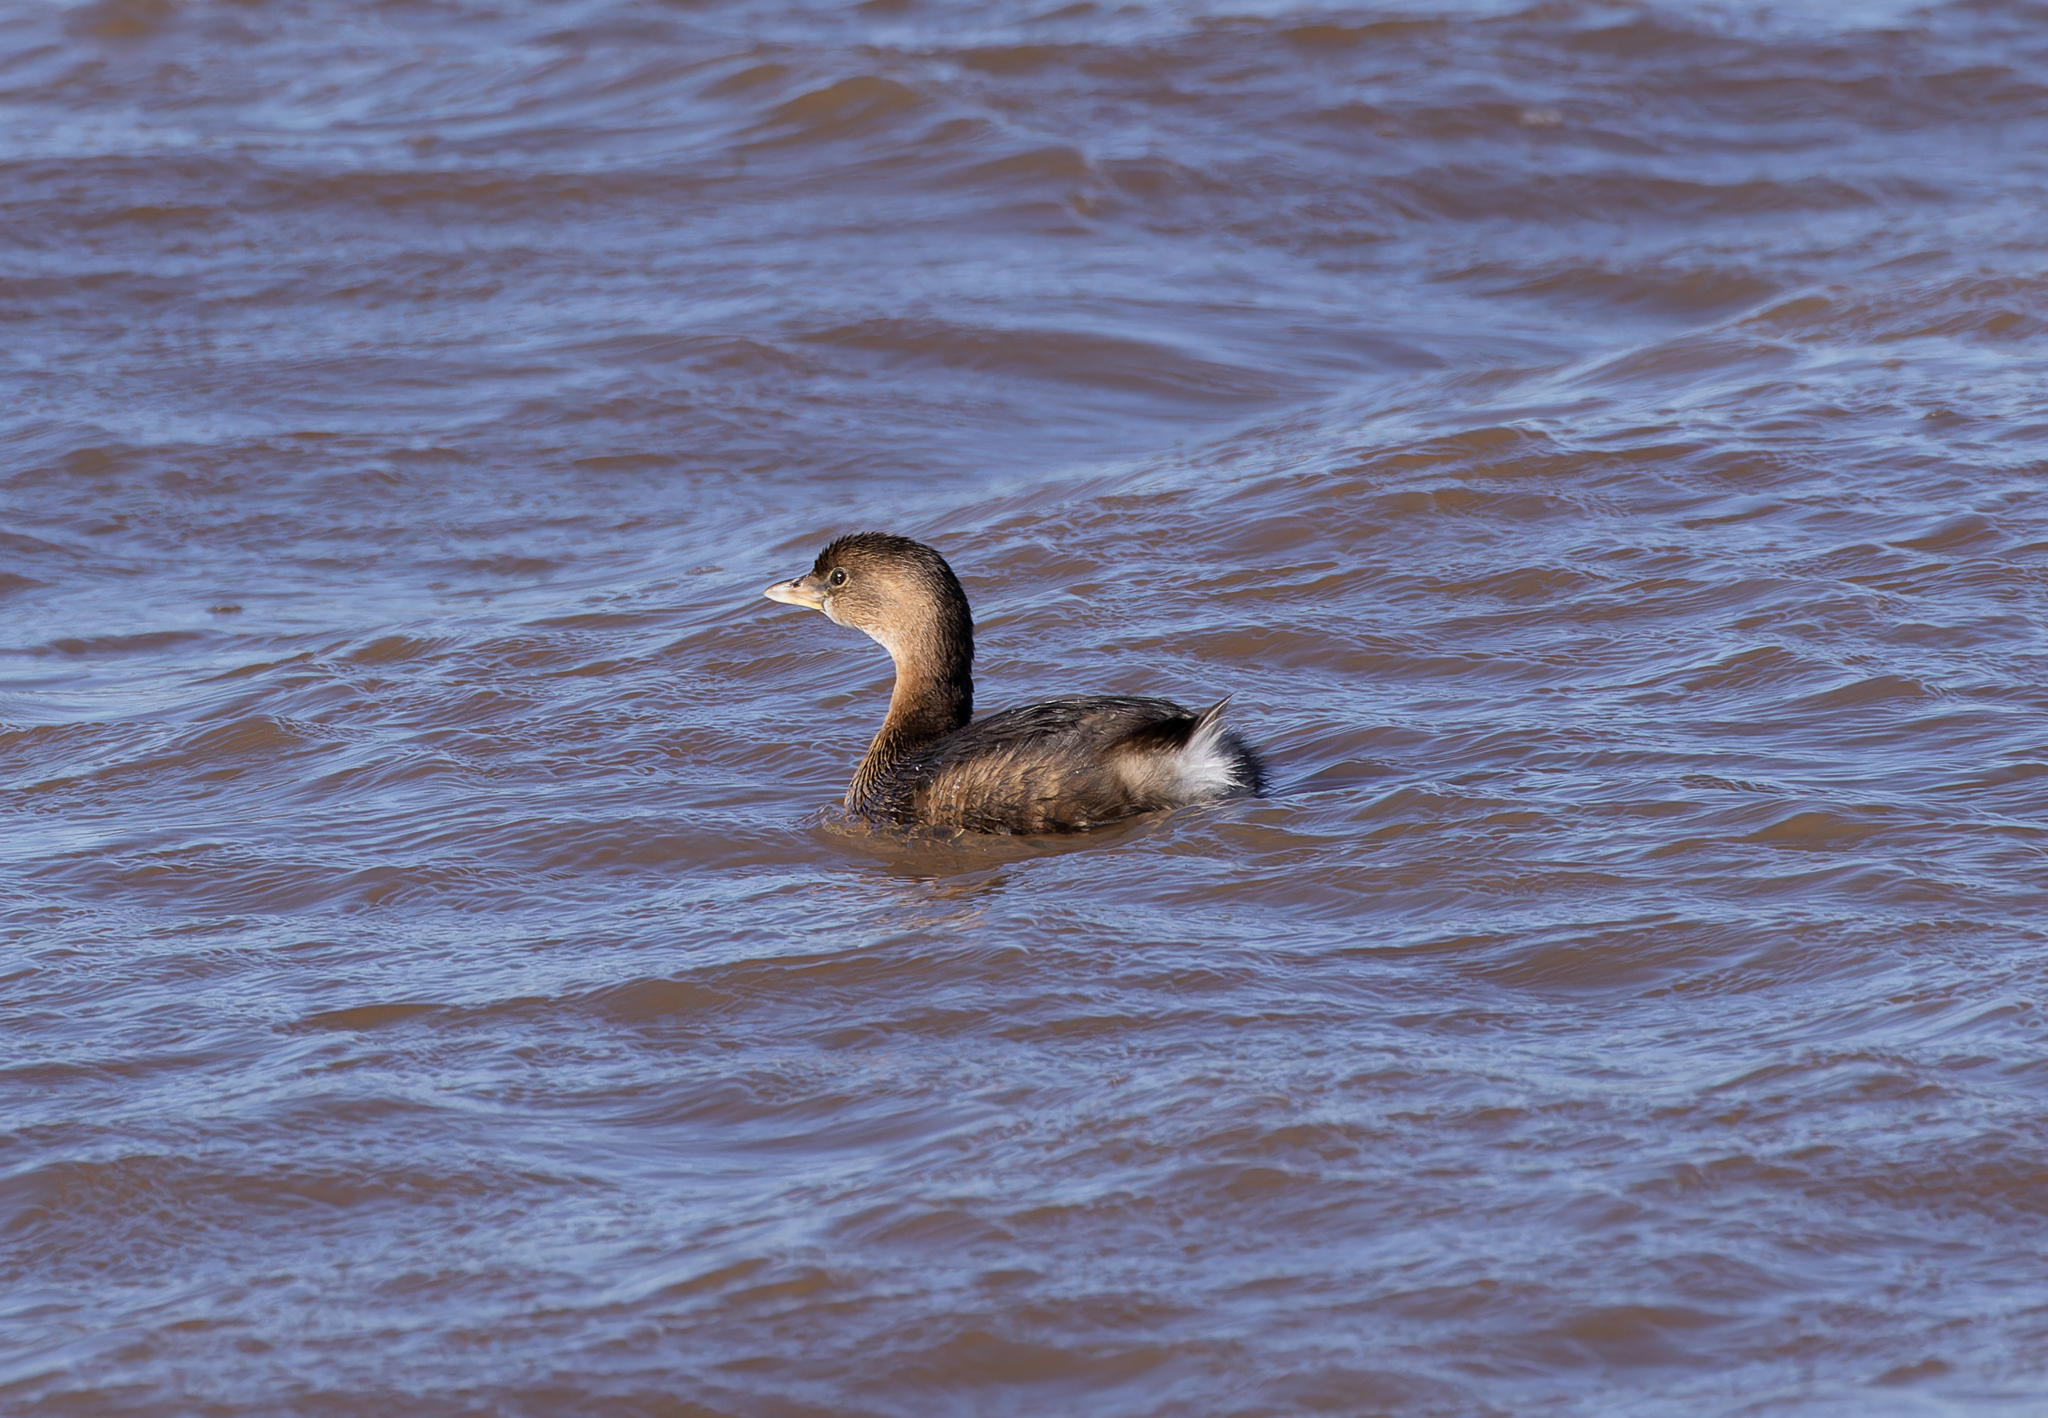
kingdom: Animalia
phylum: Chordata
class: Aves
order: Podicipediformes
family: Podicipedidae
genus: Podilymbus
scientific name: Podilymbus podiceps
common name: Pied-billed grebe
